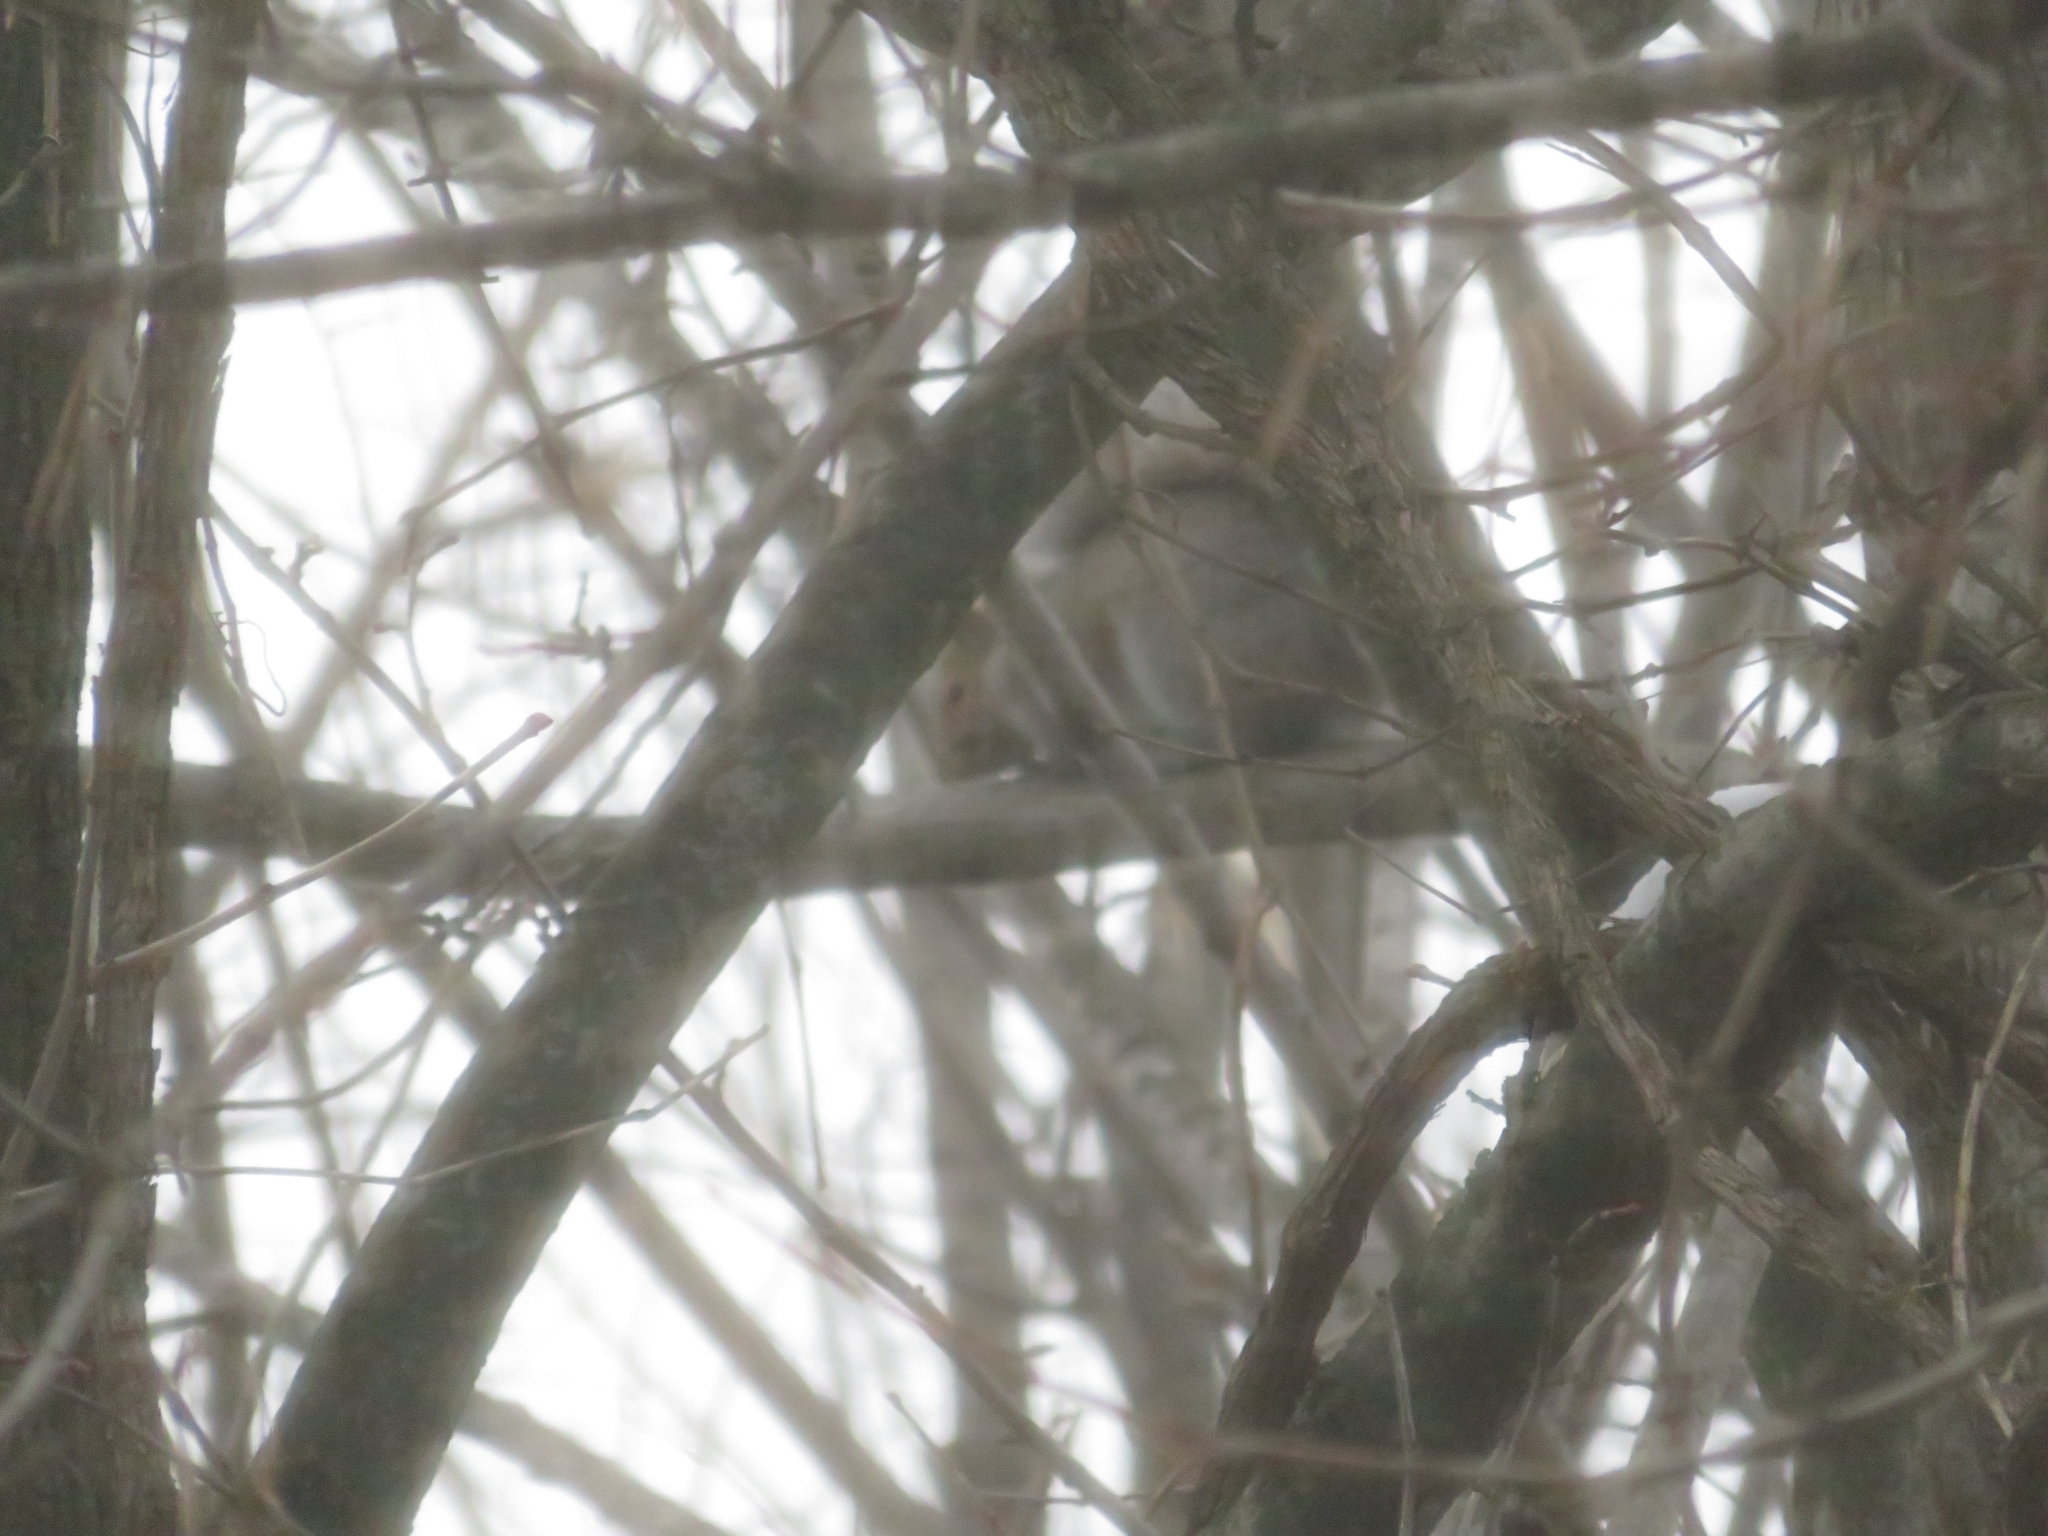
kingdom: Animalia
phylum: Chordata
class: Mammalia
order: Rodentia
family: Sciuridae
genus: Sciurus
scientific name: Sciurus carolinensis
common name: Eastern gray squirrel
